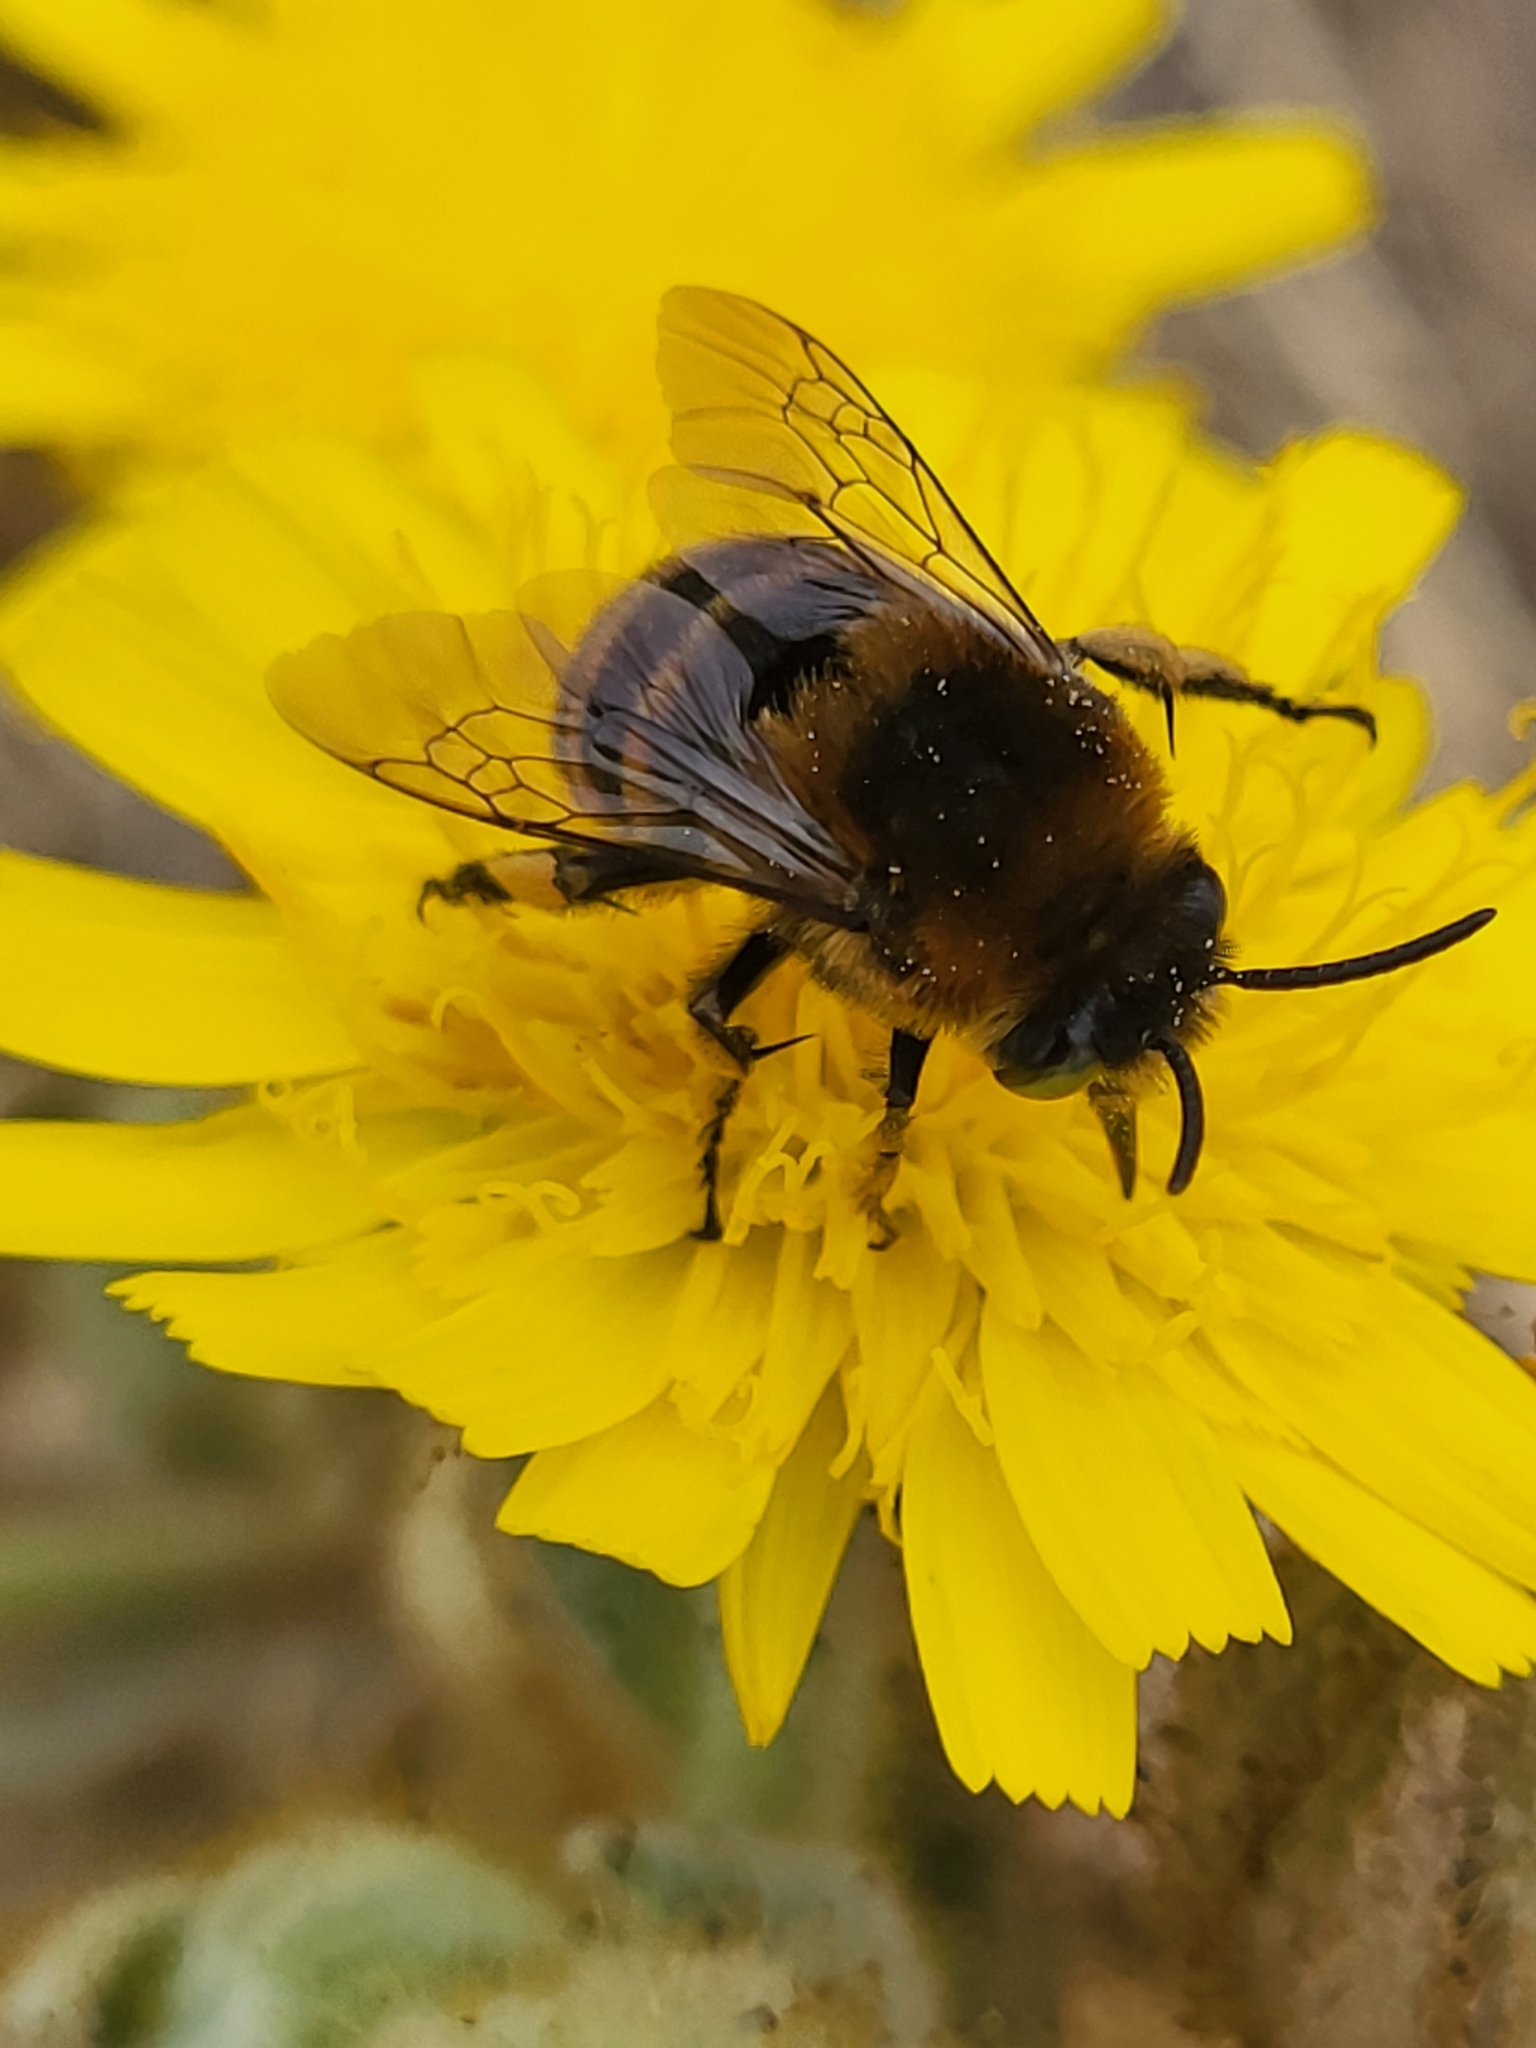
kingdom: Animalia
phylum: Arthropoda
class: Insecta
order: Hymenoptera
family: Apidae
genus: Amegilla
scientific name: Amegilla quadrifasciata
